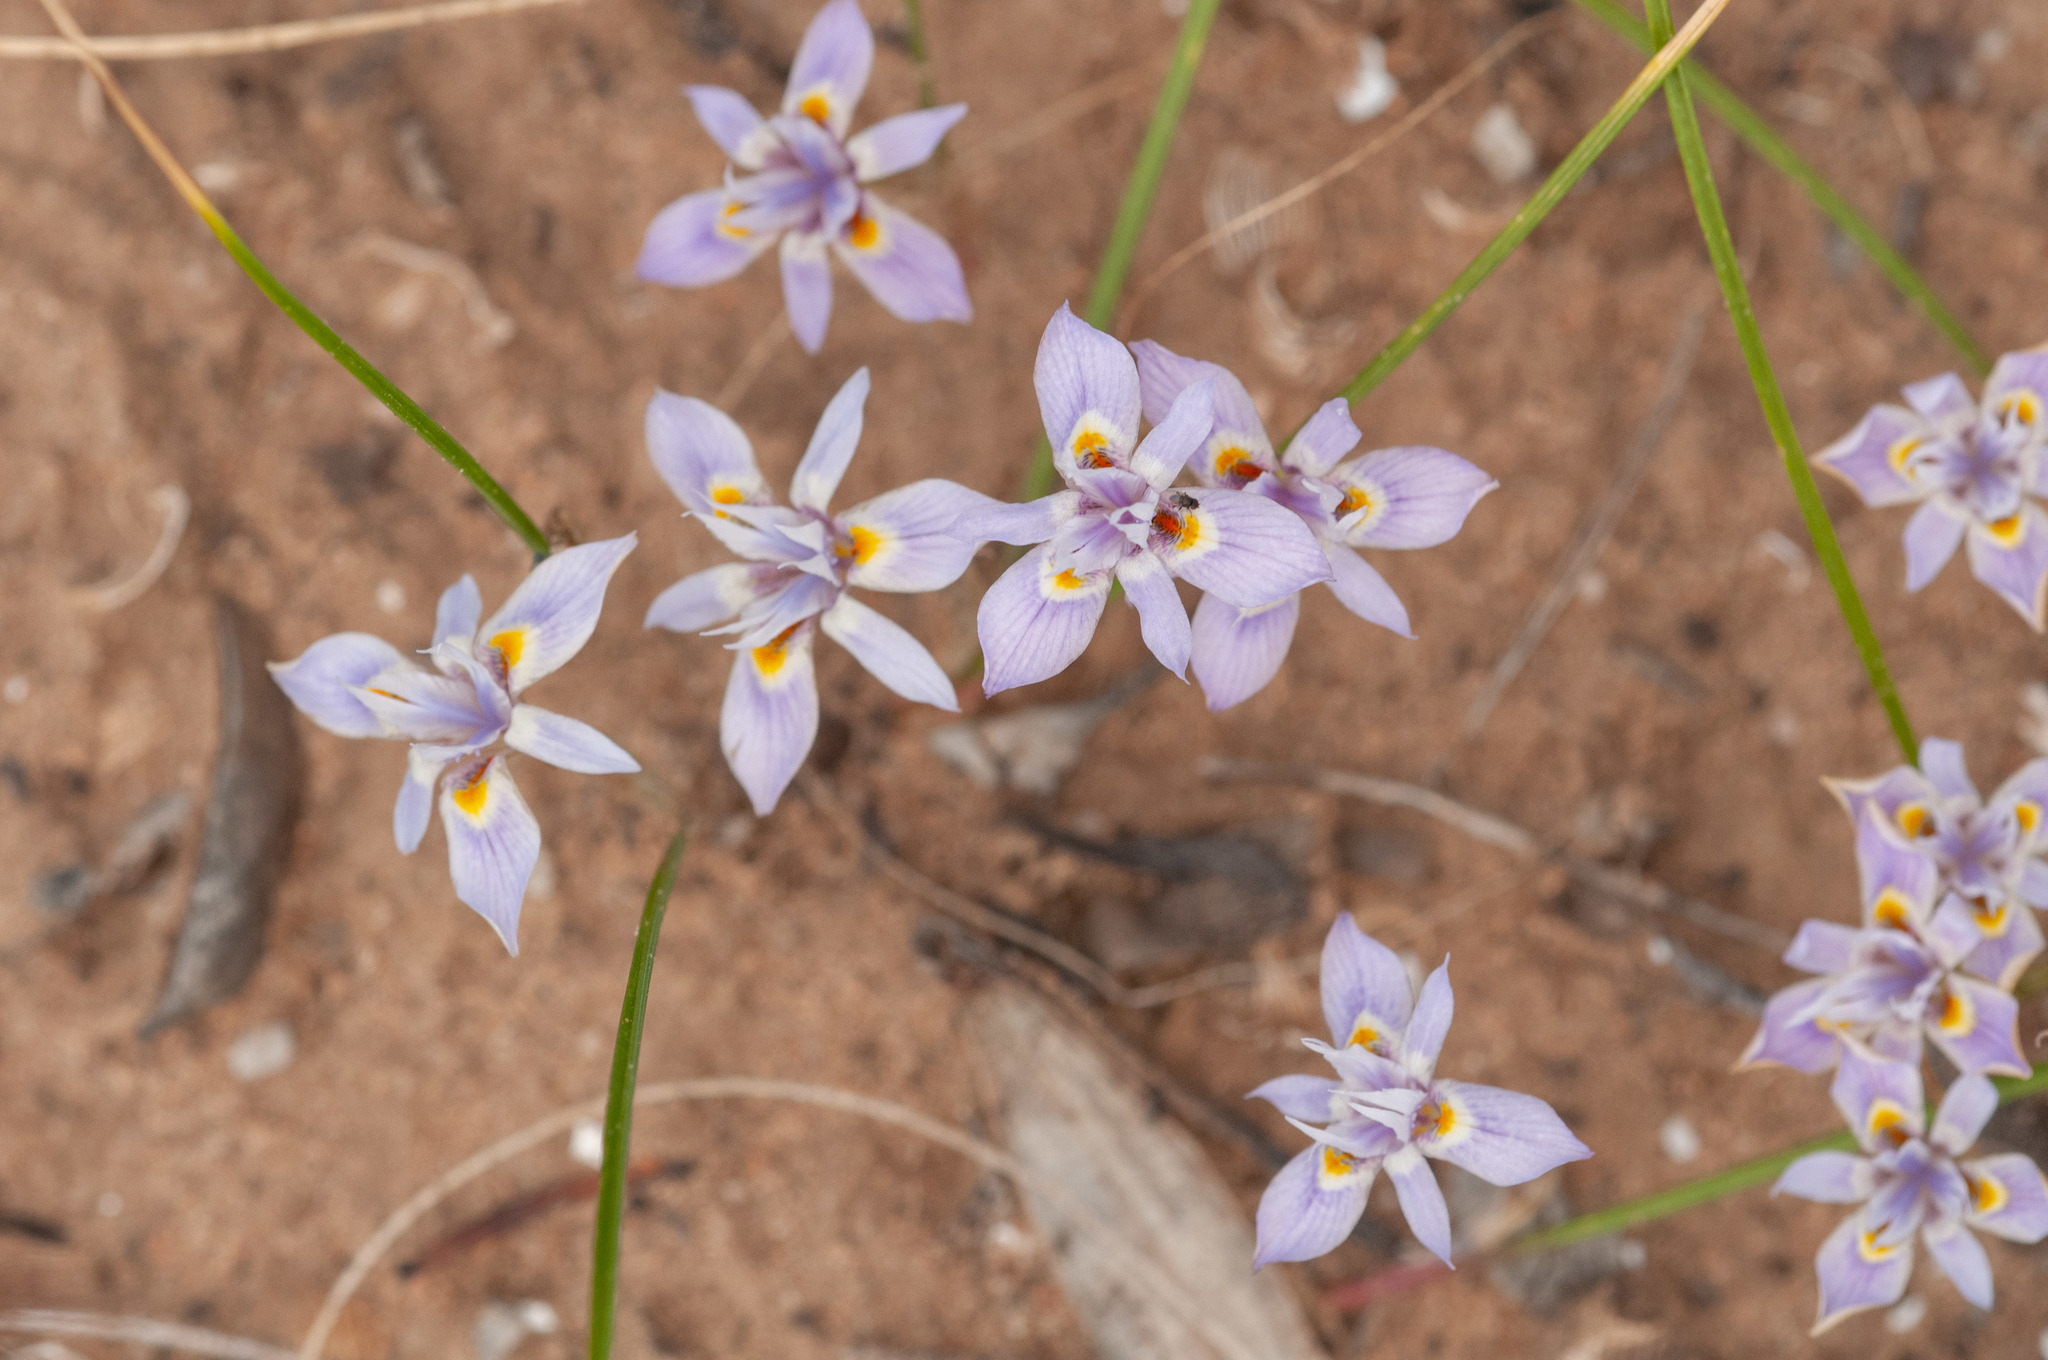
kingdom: Plantae
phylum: Tracheophyta
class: Liliopsida
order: Asparagales
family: Iridaceae
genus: Moraea
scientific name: Moraea setifolia
